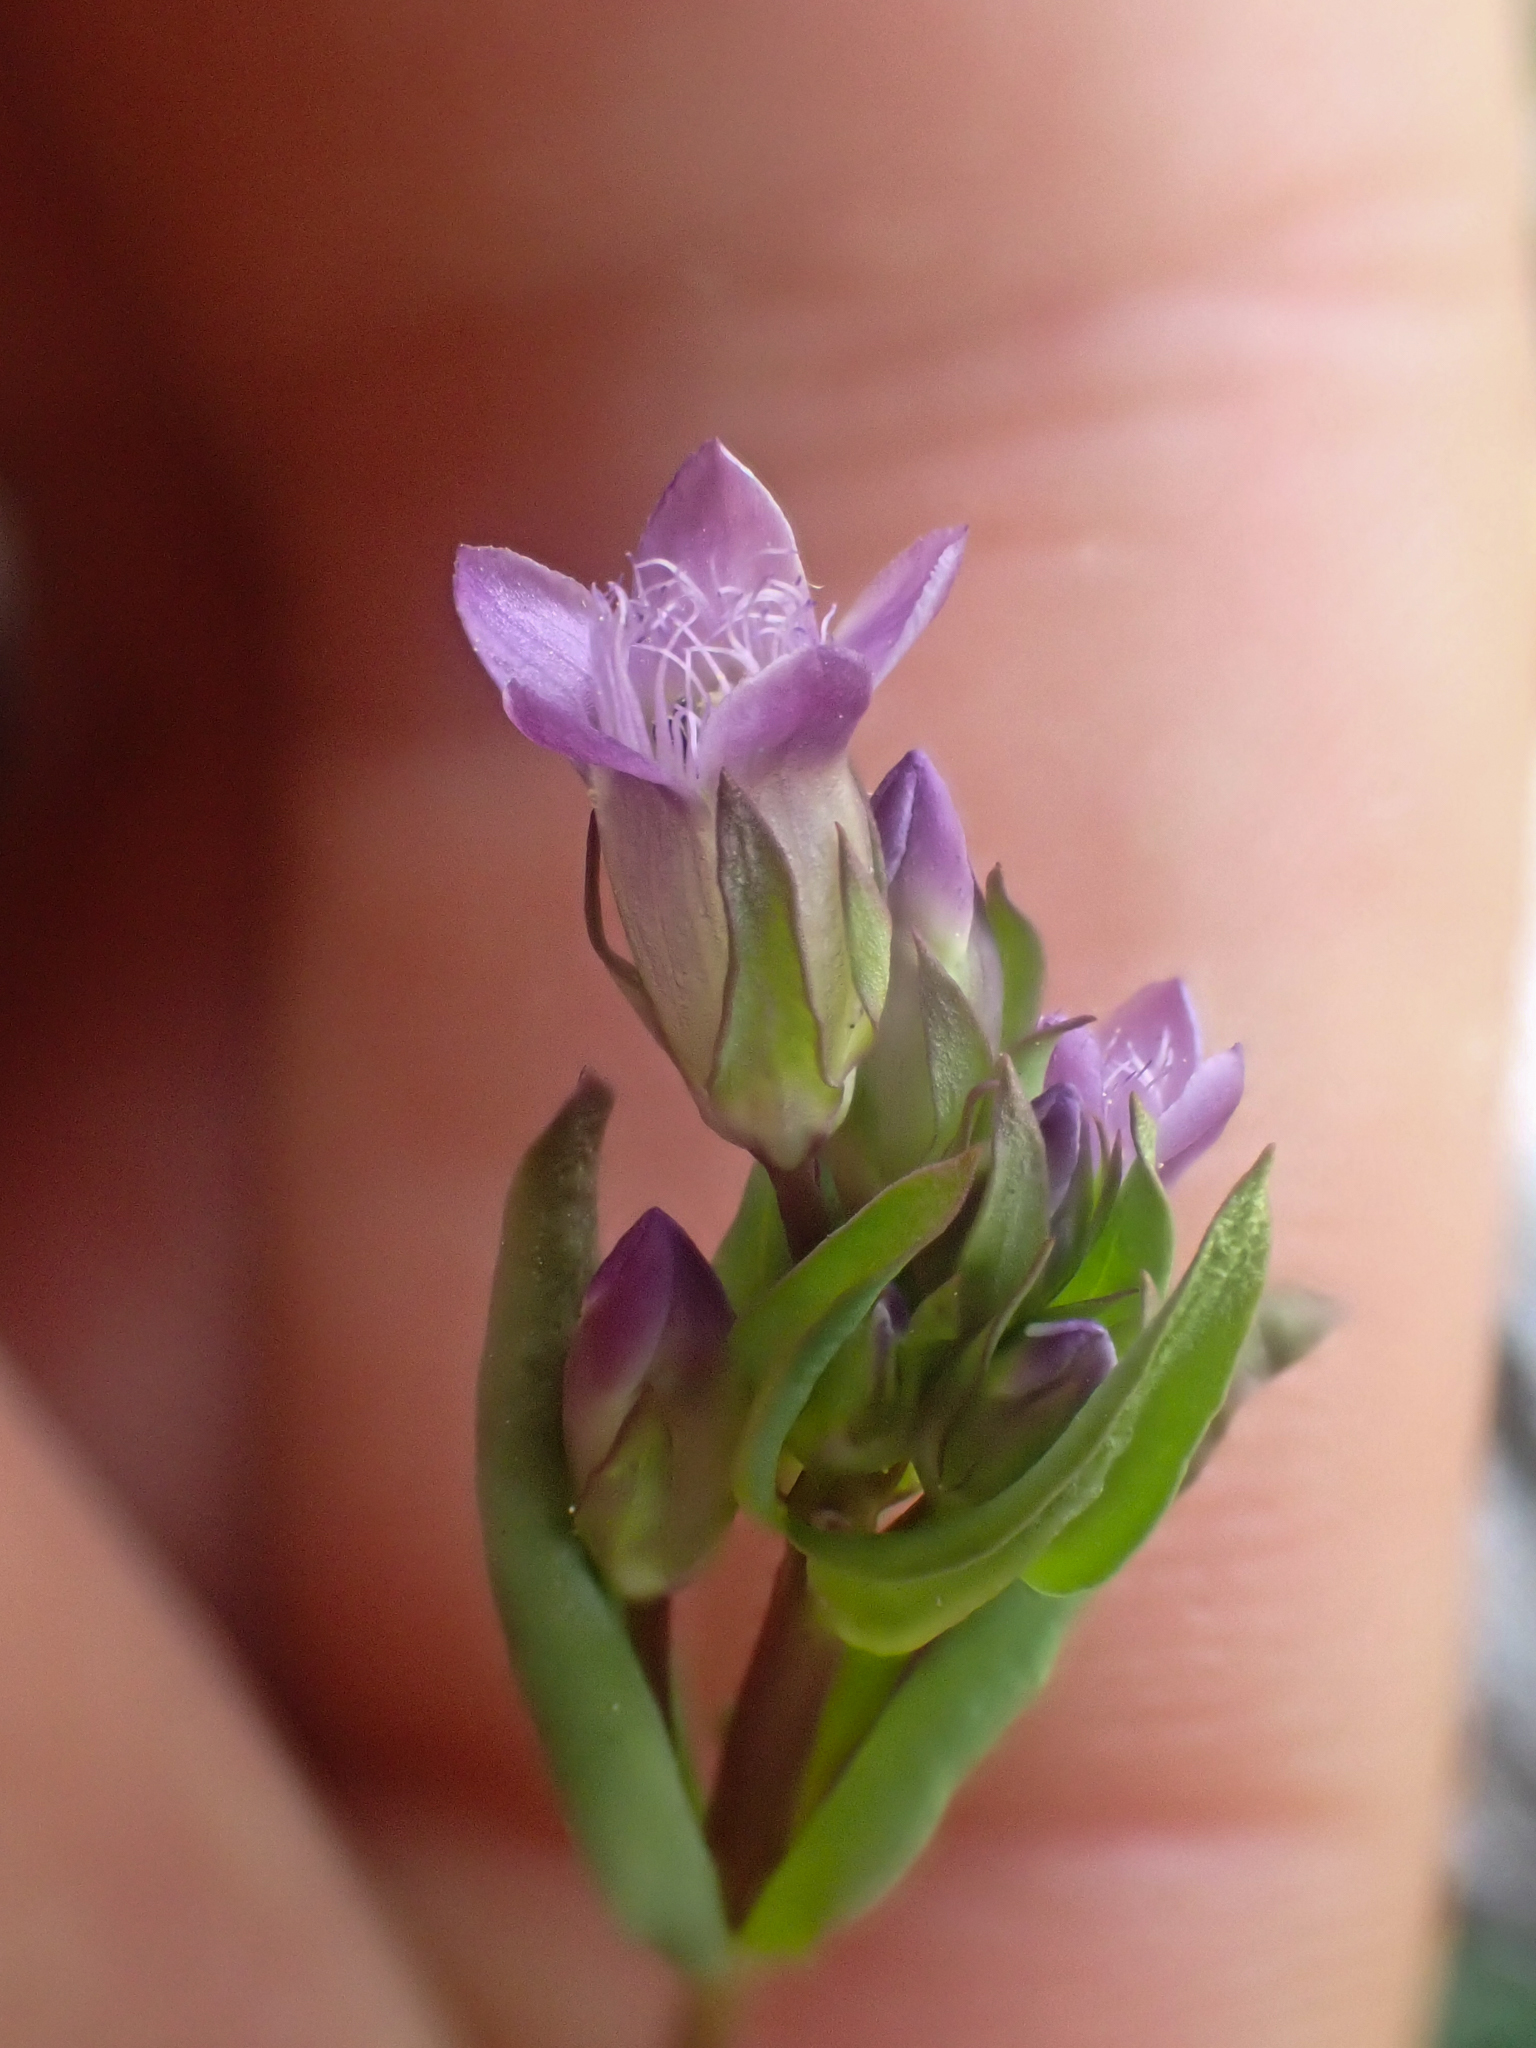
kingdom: Plantae
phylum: Tracheophyta
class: Magnoliopsida
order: Gentianales
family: Gentianaceae
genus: Gentianella
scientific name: Gentianella amarella
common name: Autumn gentian
